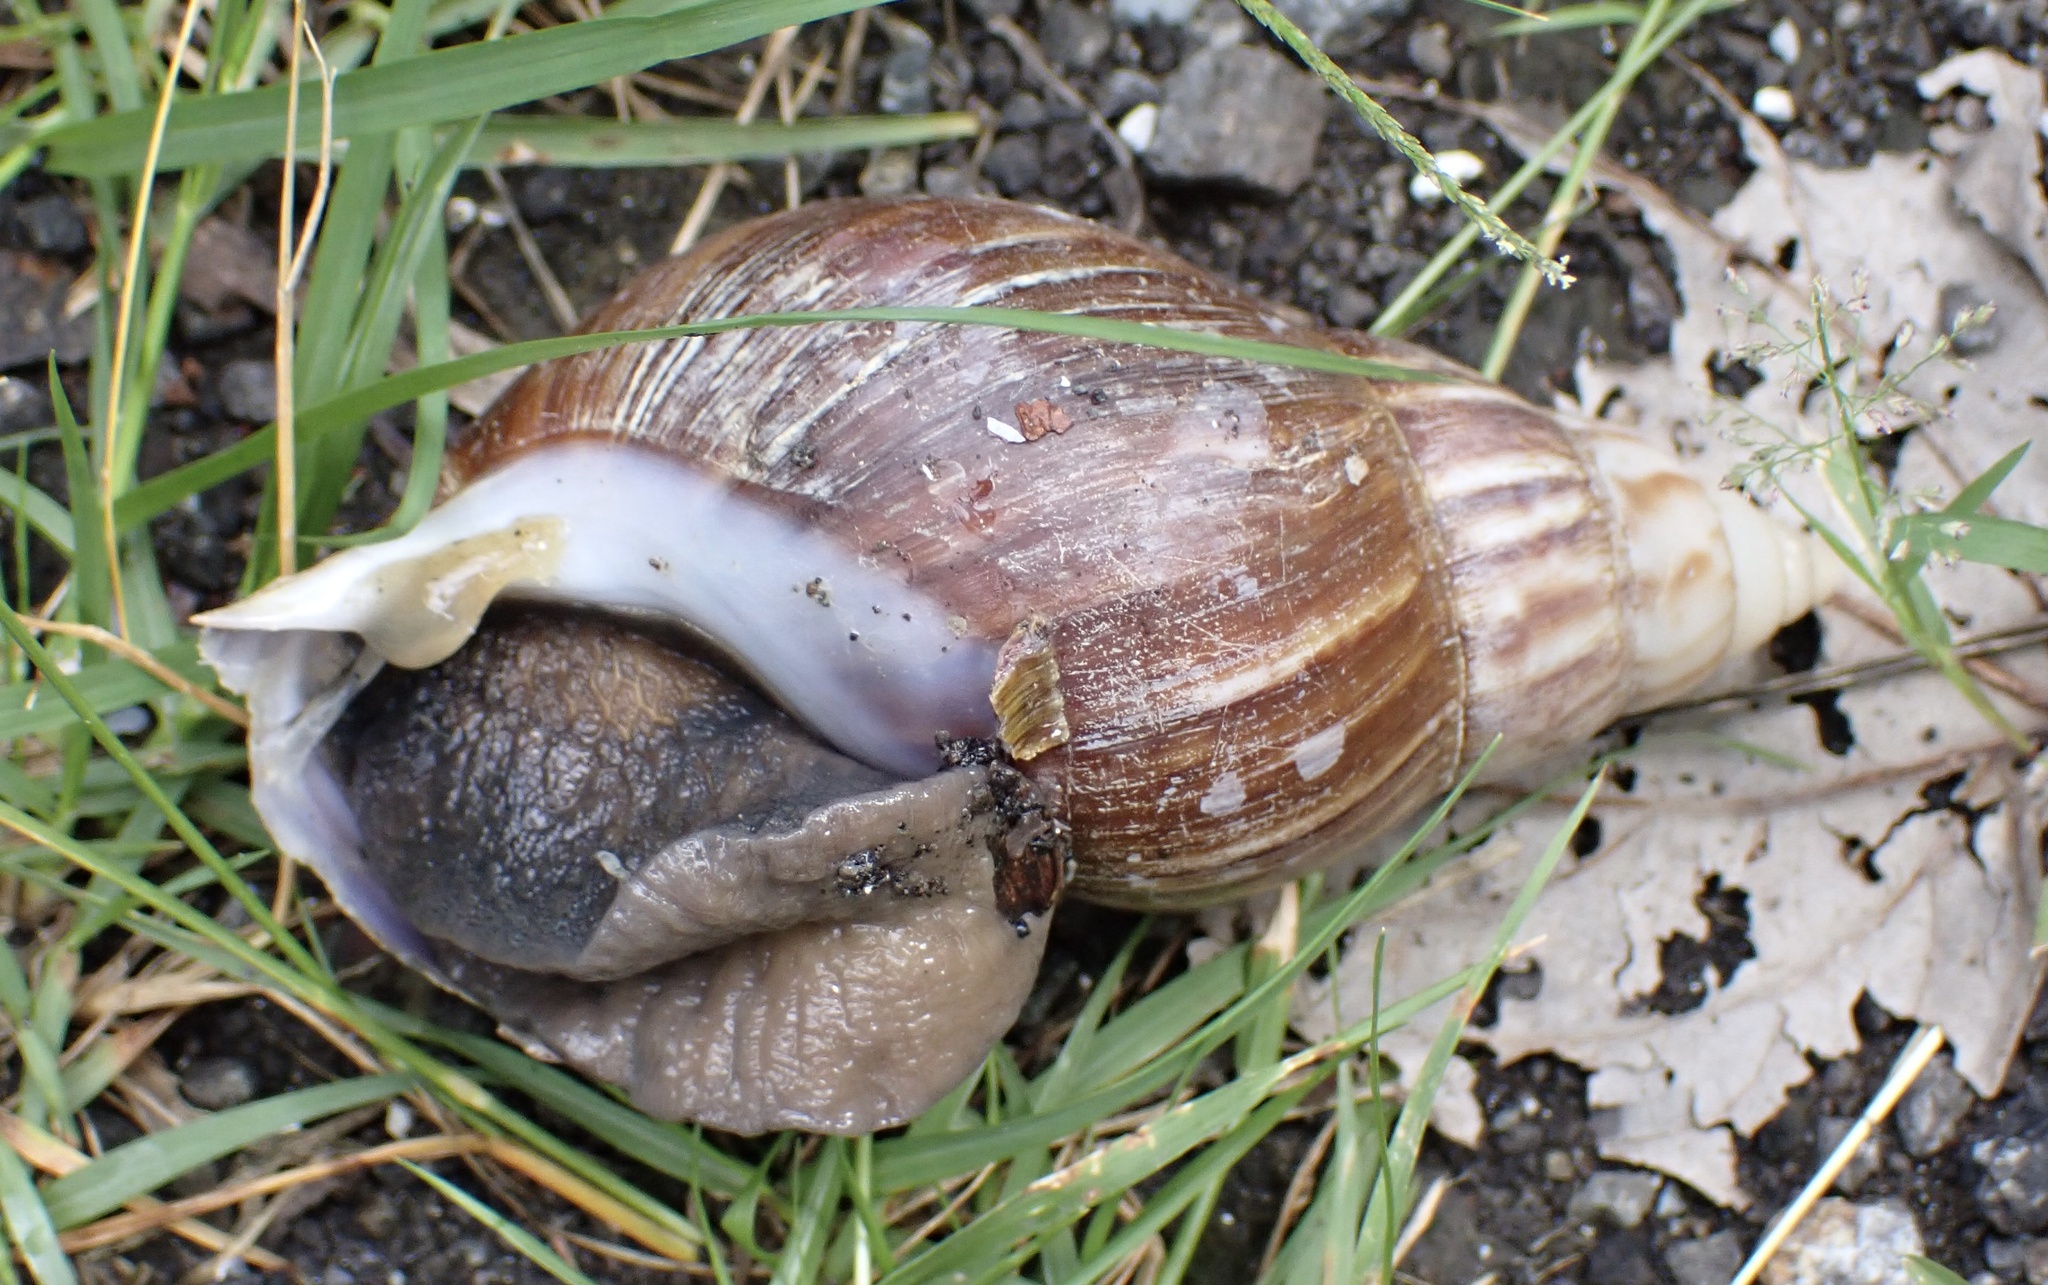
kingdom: Animalia
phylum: Mollusca
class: Gastropoda
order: Stylommatophora
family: Achatinidae
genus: Lissachatina
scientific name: Lissachatina fulica
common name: Giant african snail
